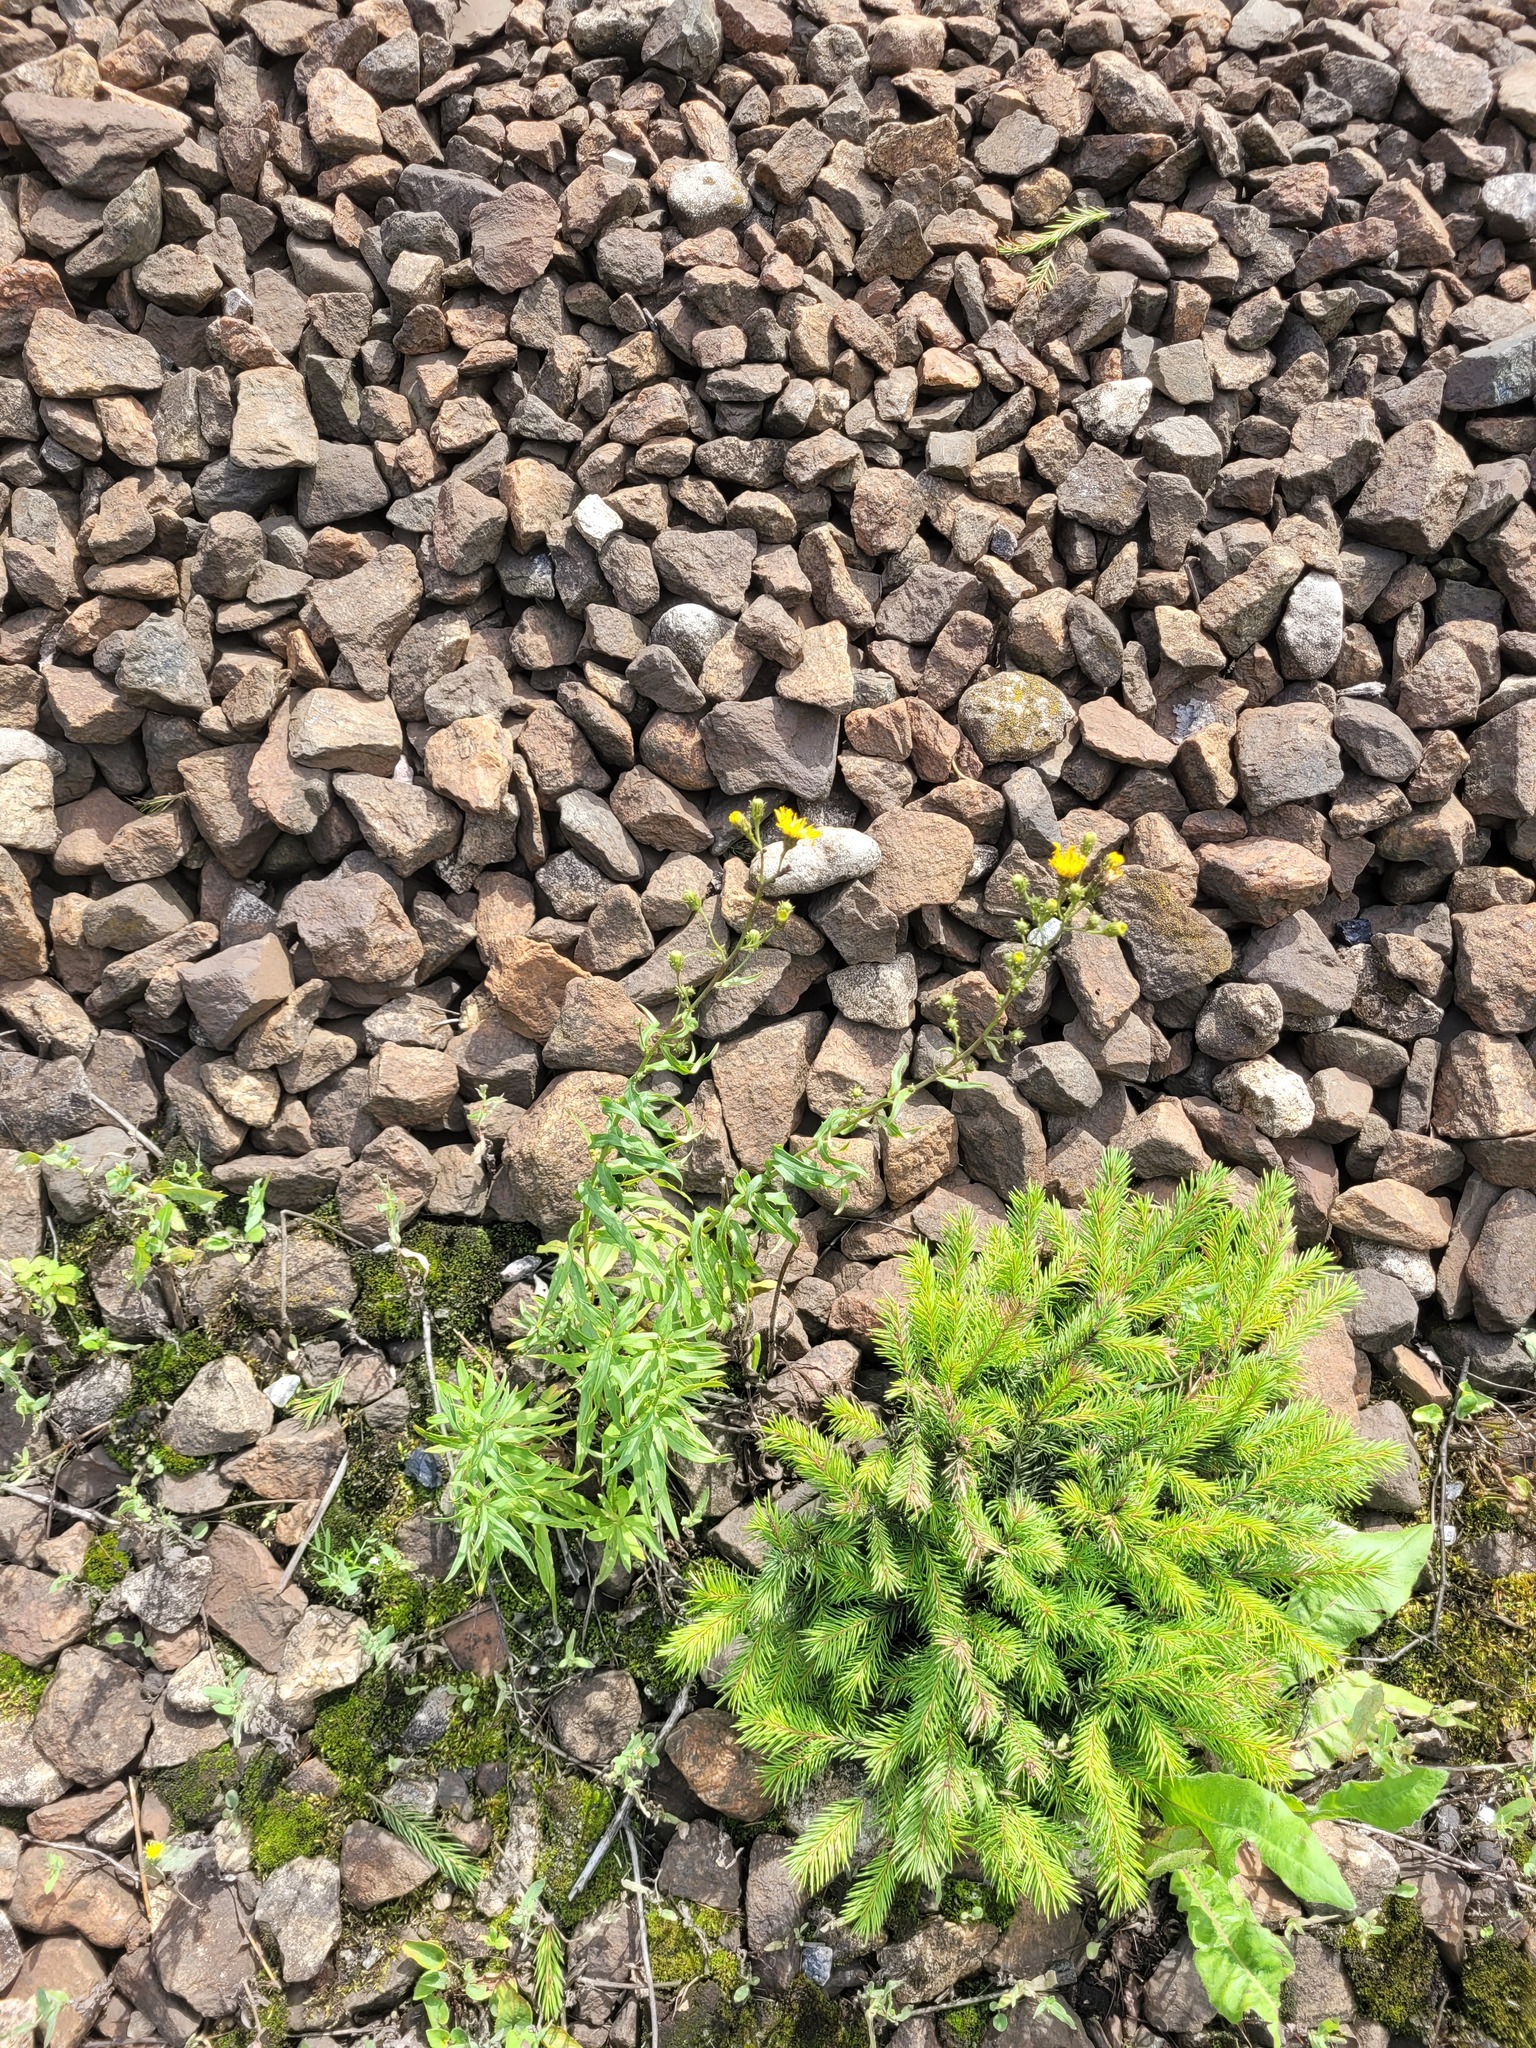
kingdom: Plantae
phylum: Tracheophyta
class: Magnoliopsida
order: Asterales
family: Asteraceae
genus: Hieracium
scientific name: Hieracium umbellatum
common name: Northern hawkweed
